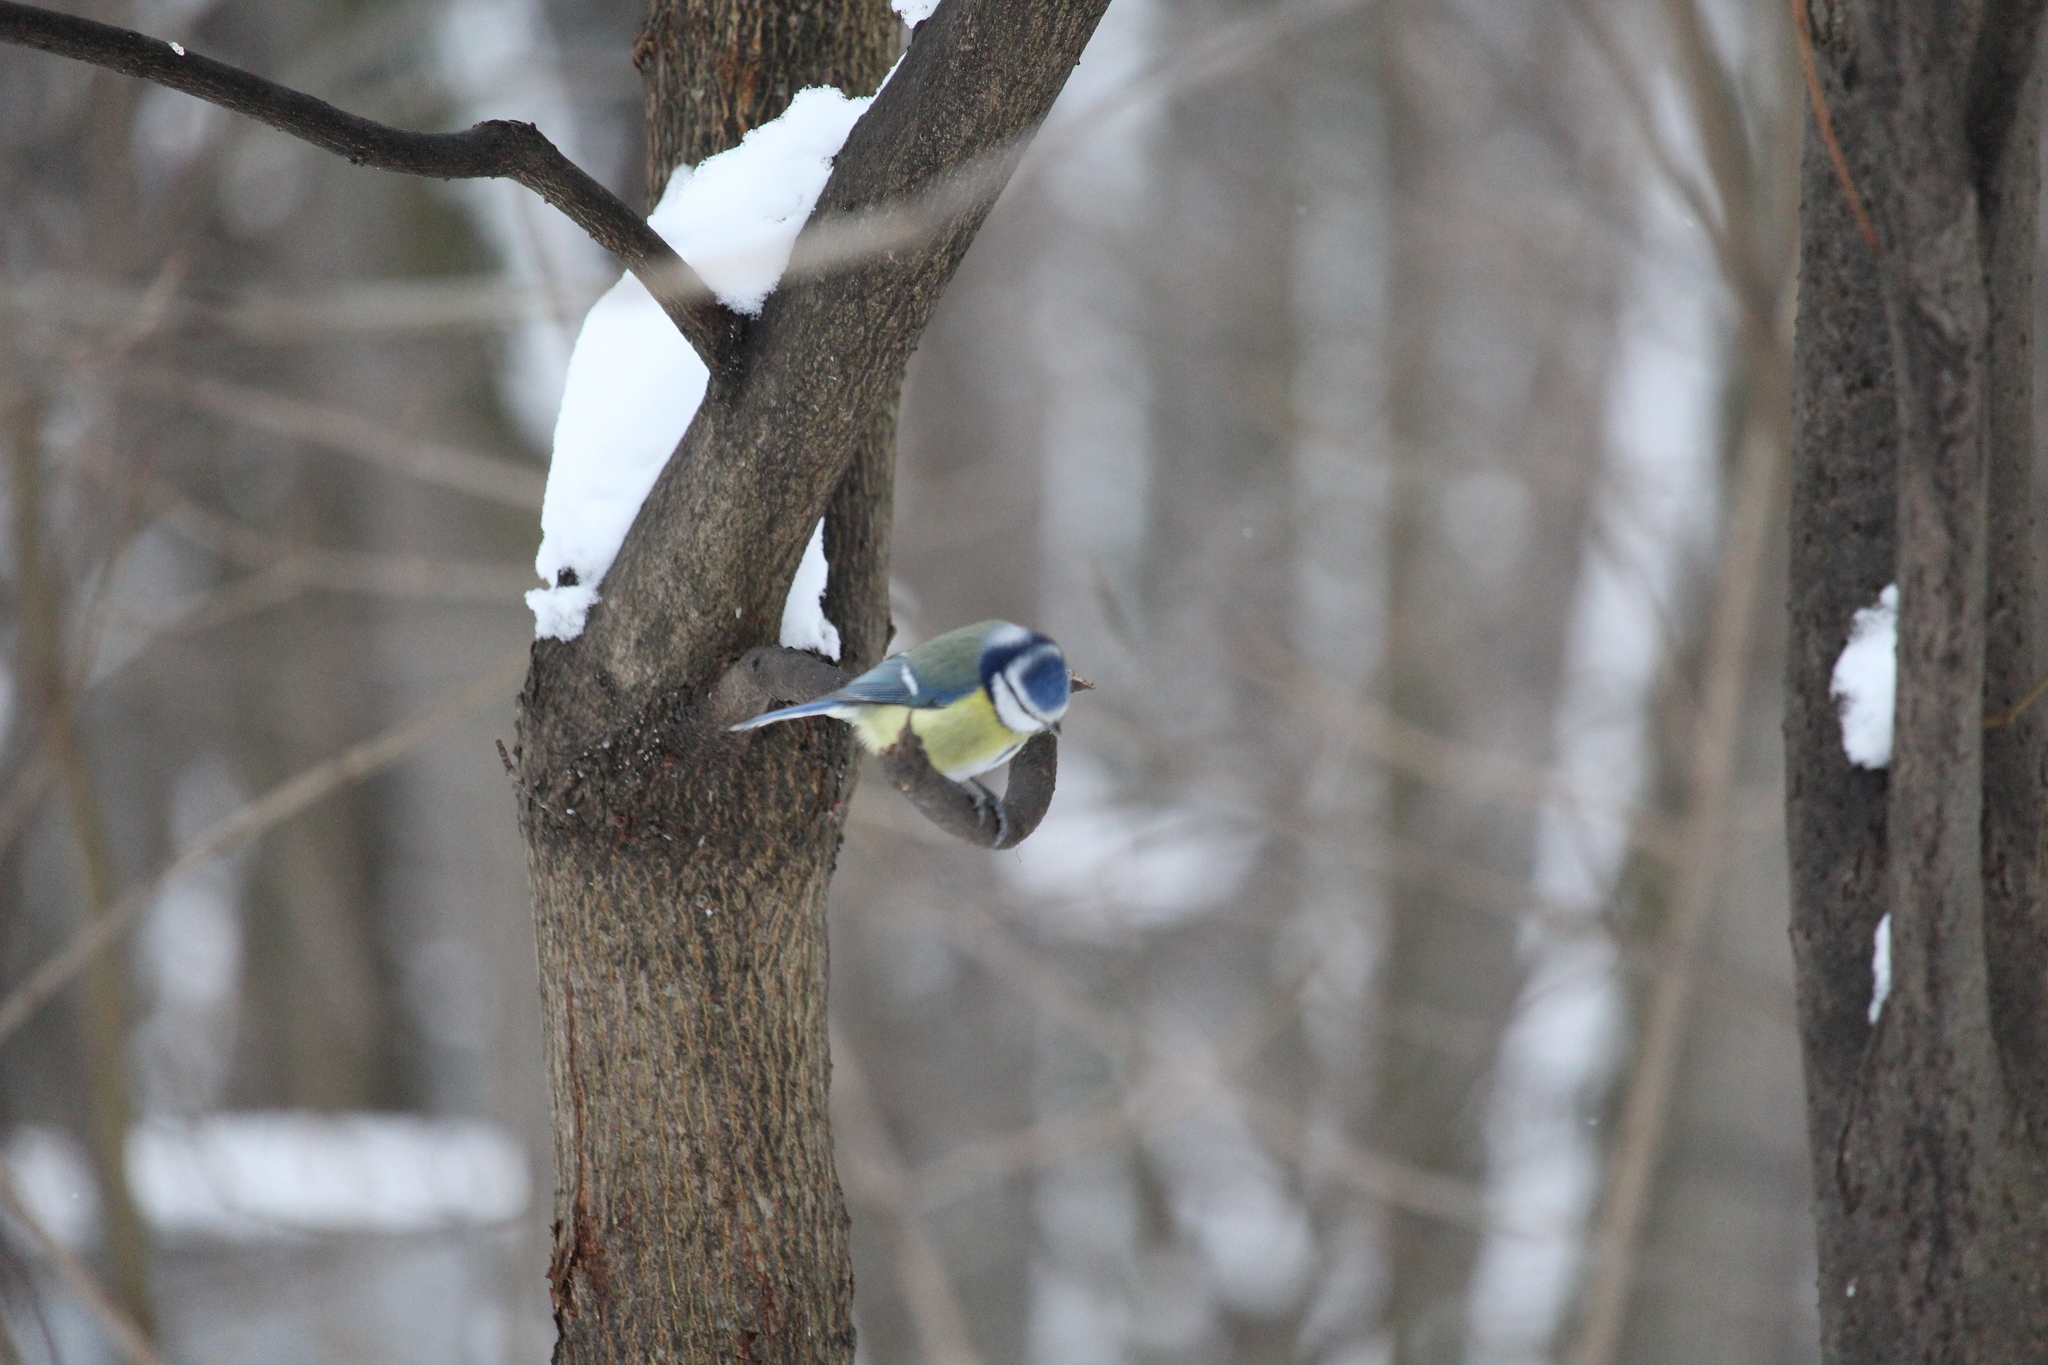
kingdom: Animalia
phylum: Chordata
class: Aves
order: Passeriformes
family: Paridae
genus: Cyanistes
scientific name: Cyanistes caeruleus
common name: Eurasian blue tit
